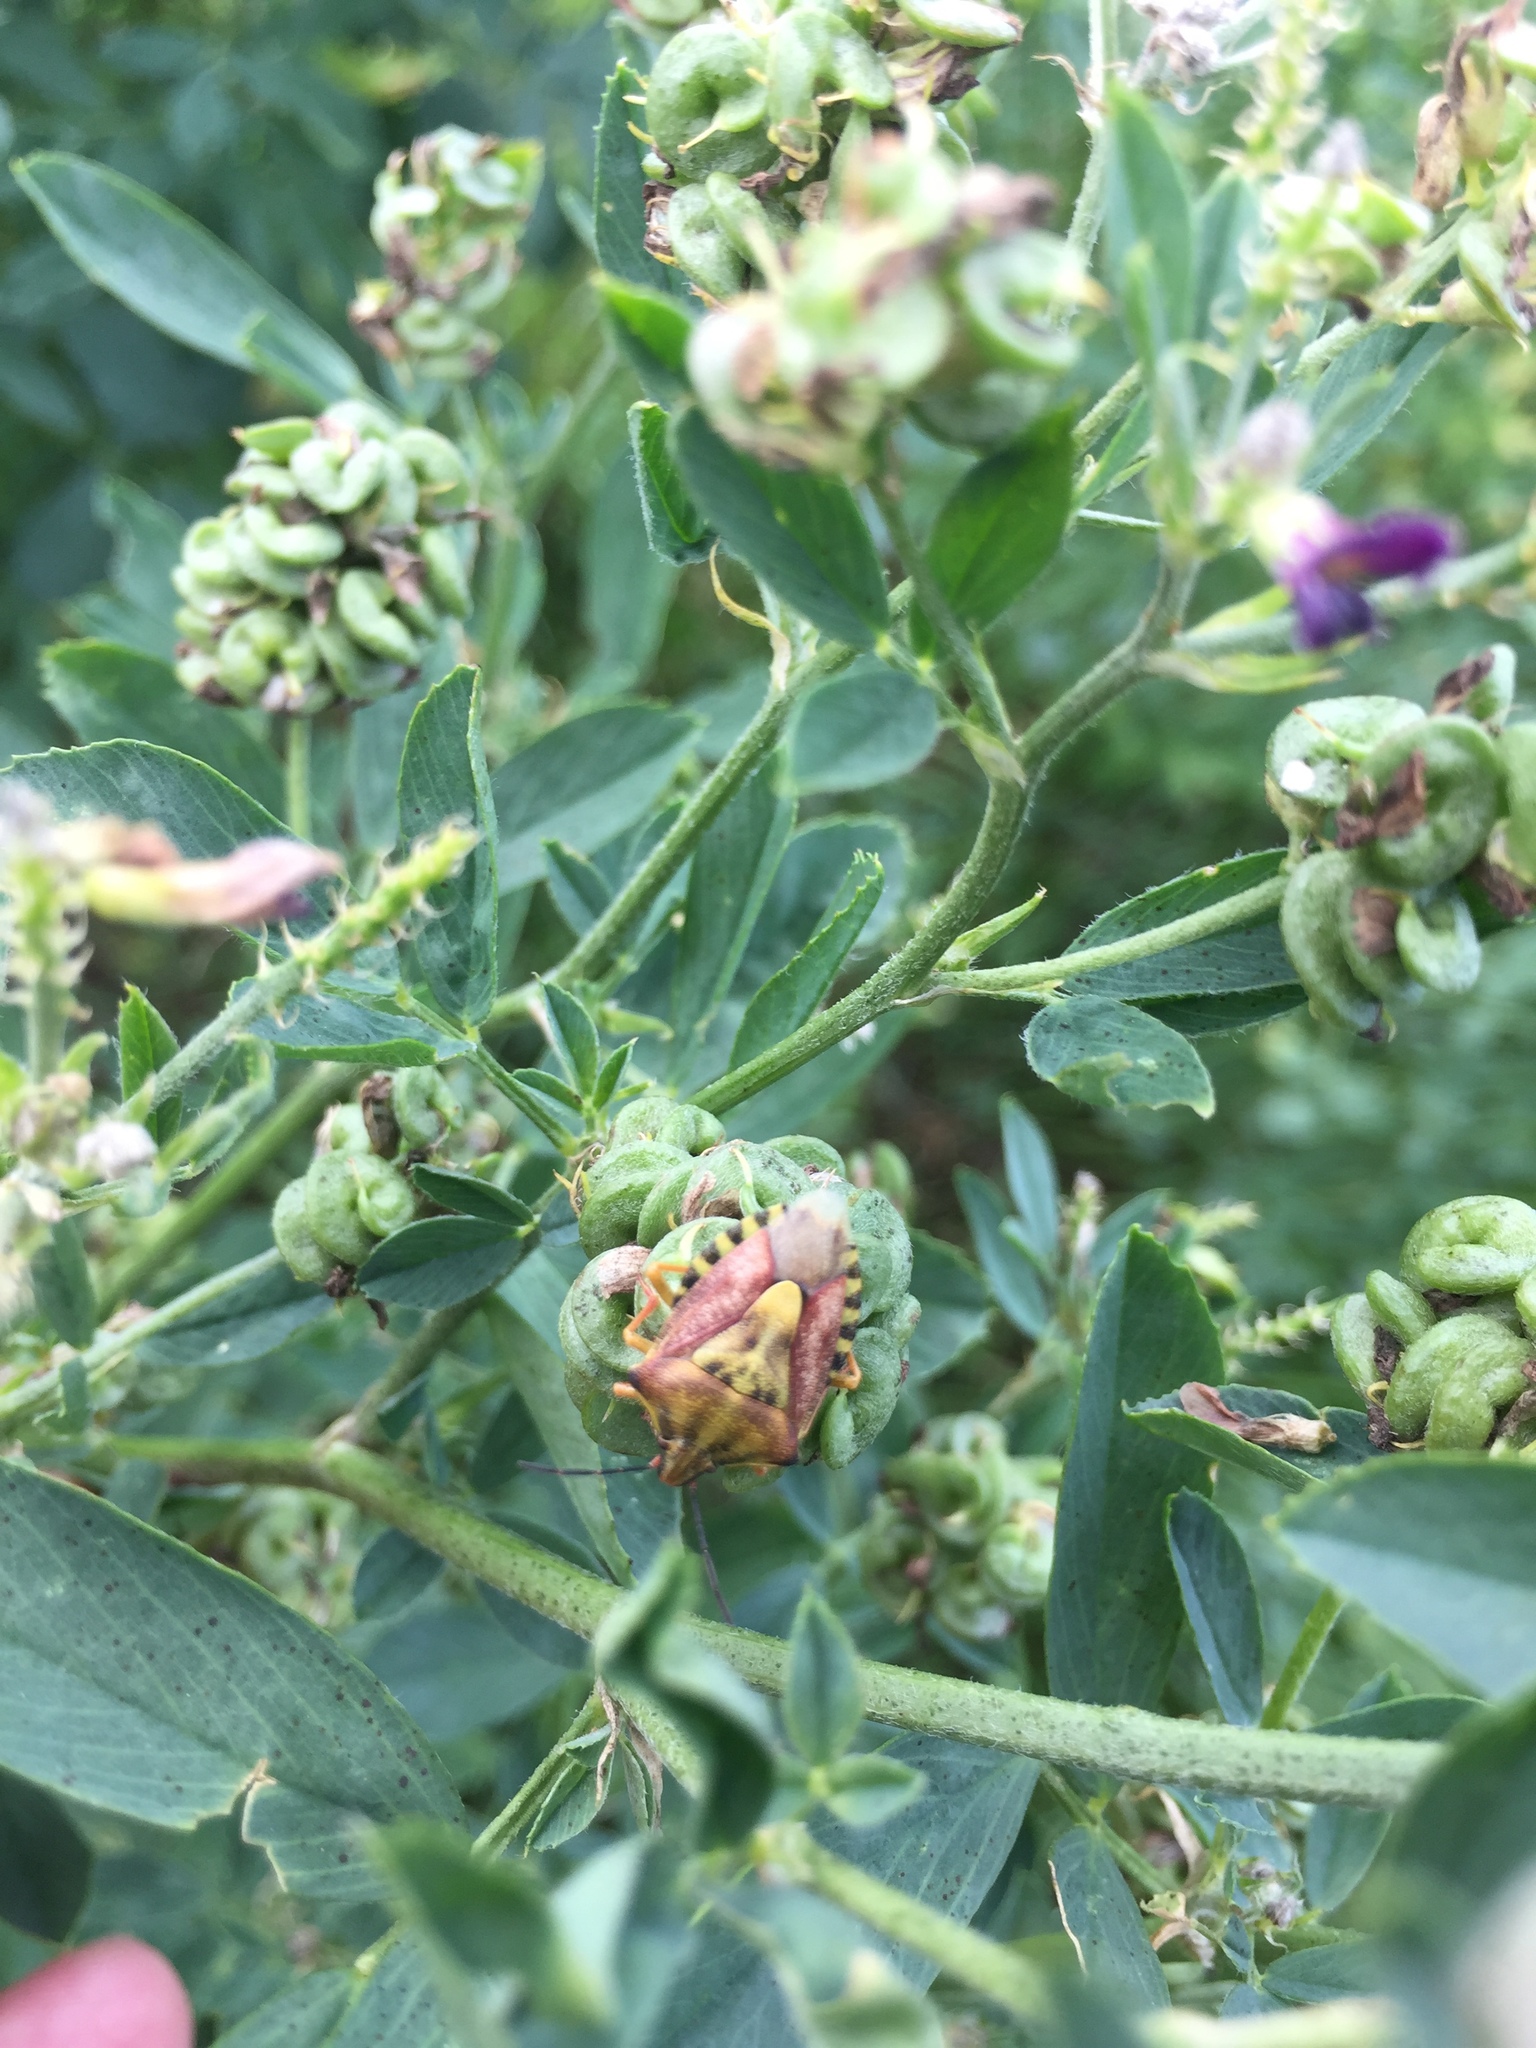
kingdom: Animalia
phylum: Arthropoda
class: Insecta
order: Hemiptera
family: Pentatomidae
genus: Carpocoris
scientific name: Carpocoris purpureipennis
